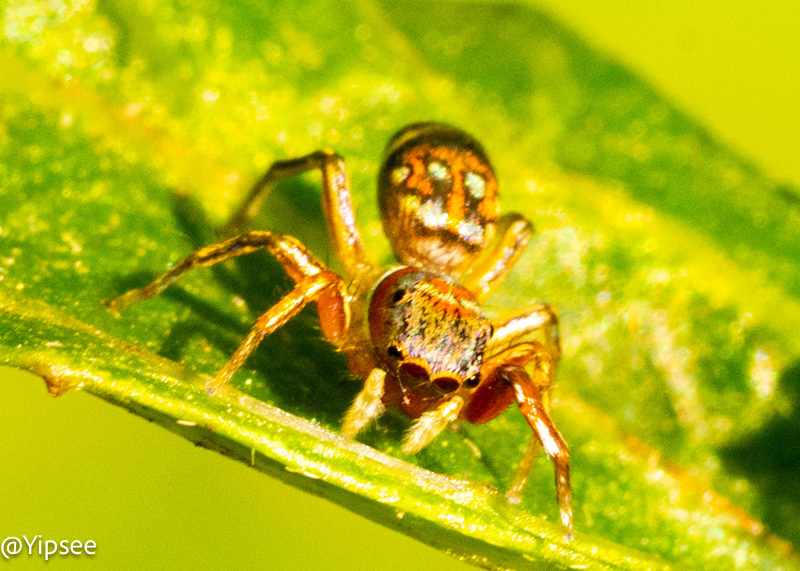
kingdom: Animalia
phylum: Arthropoda
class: Arachnida
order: Araneae
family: Salticidae
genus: Siler
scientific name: Siler semiglaucus
